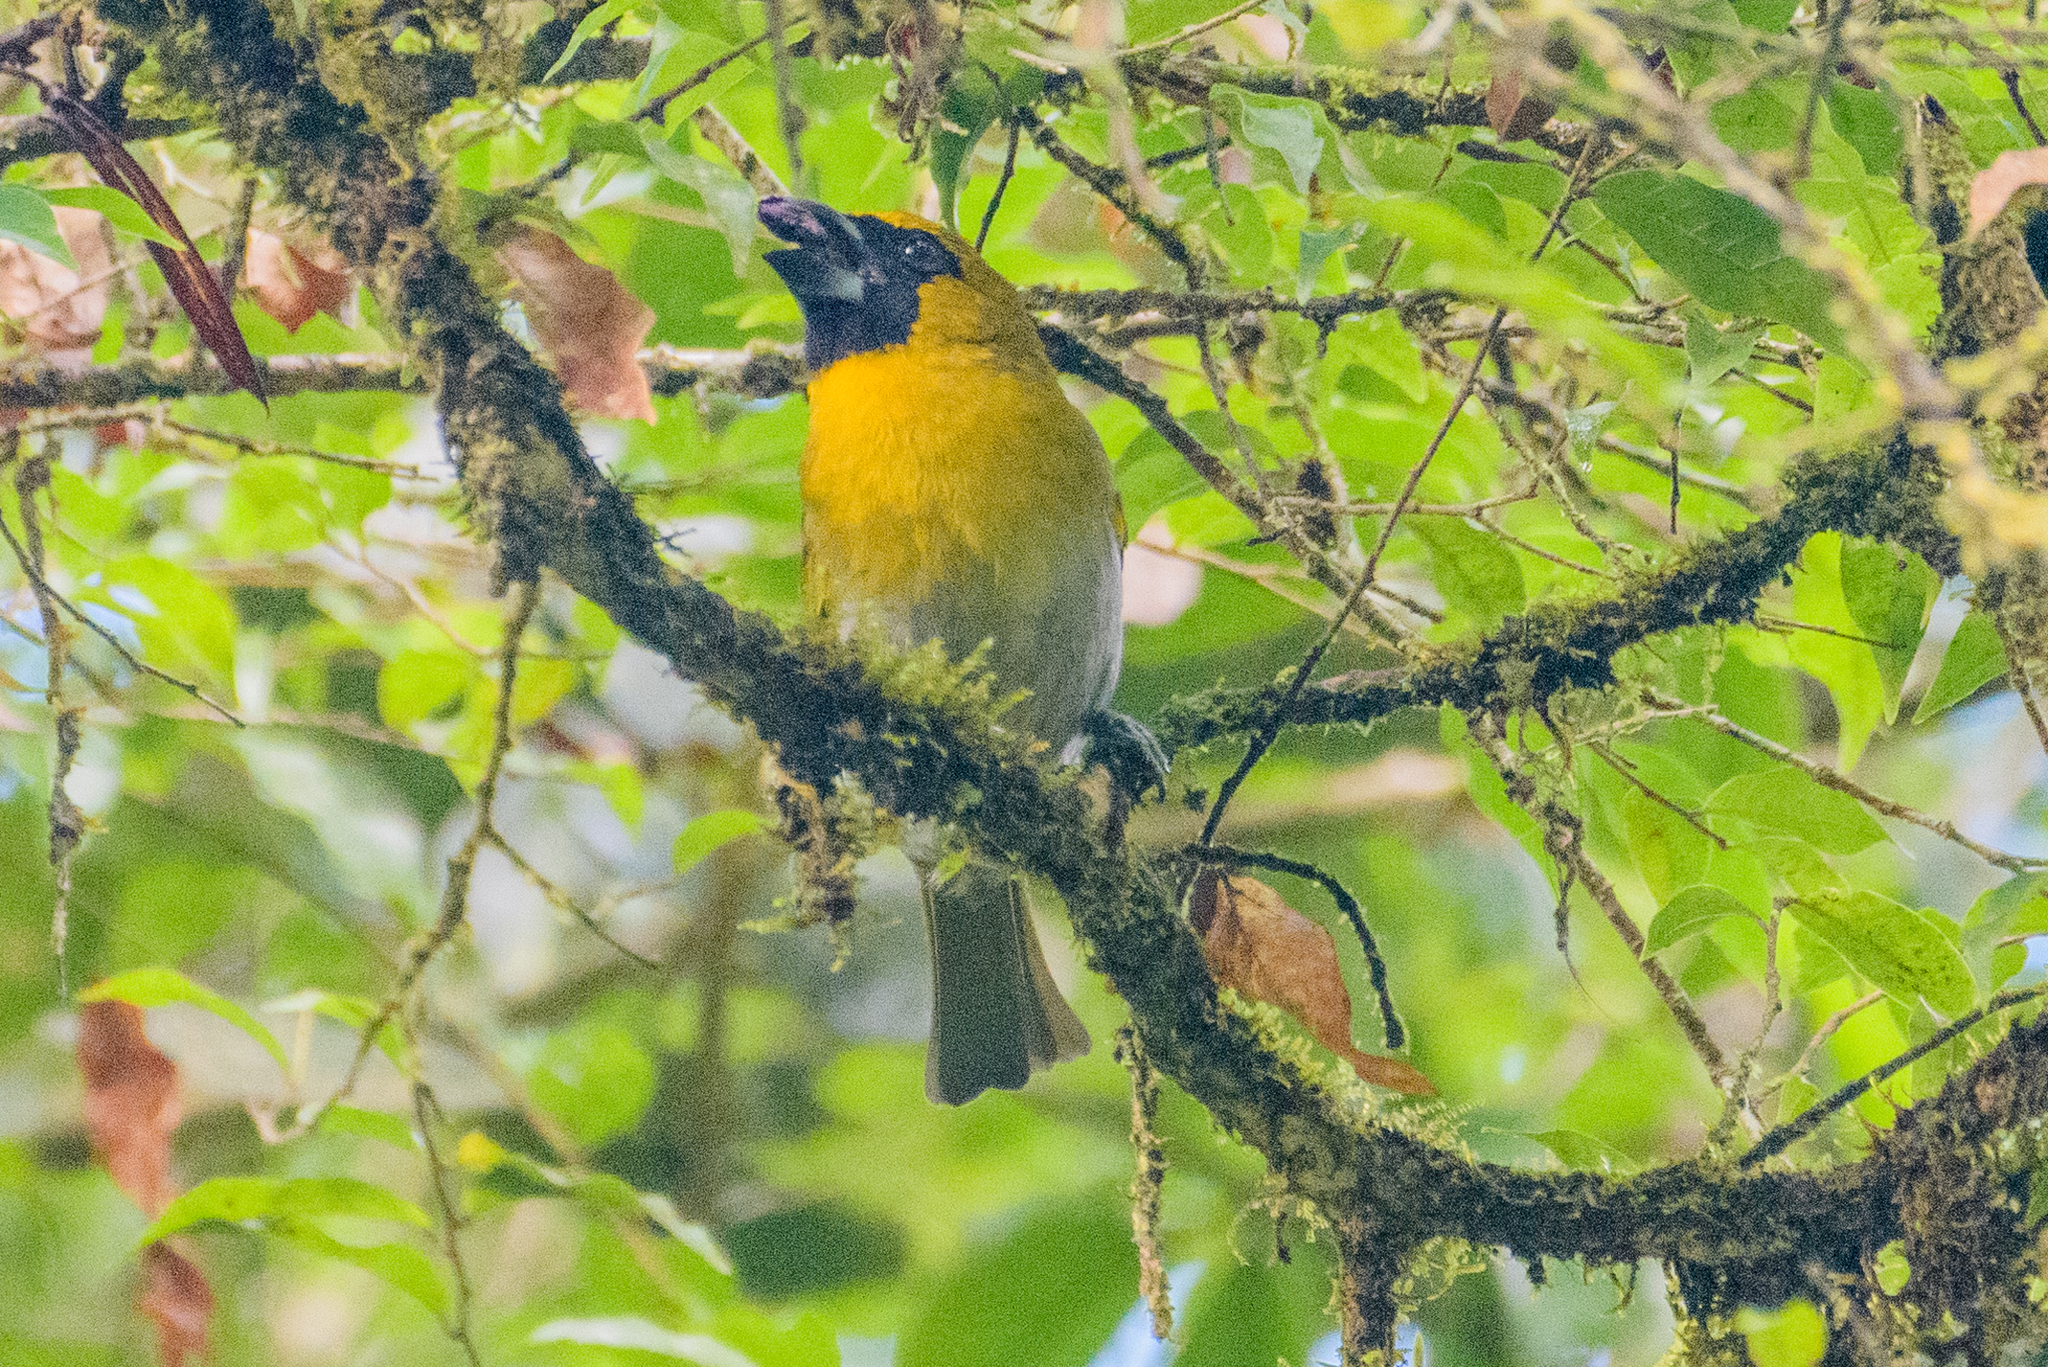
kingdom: Animalia
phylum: Chordata
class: Aves
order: Passeriformes
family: Cardinalidae
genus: Caryothraustes
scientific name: Caryothraustes poliogaster
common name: Black-faced grosbeak
